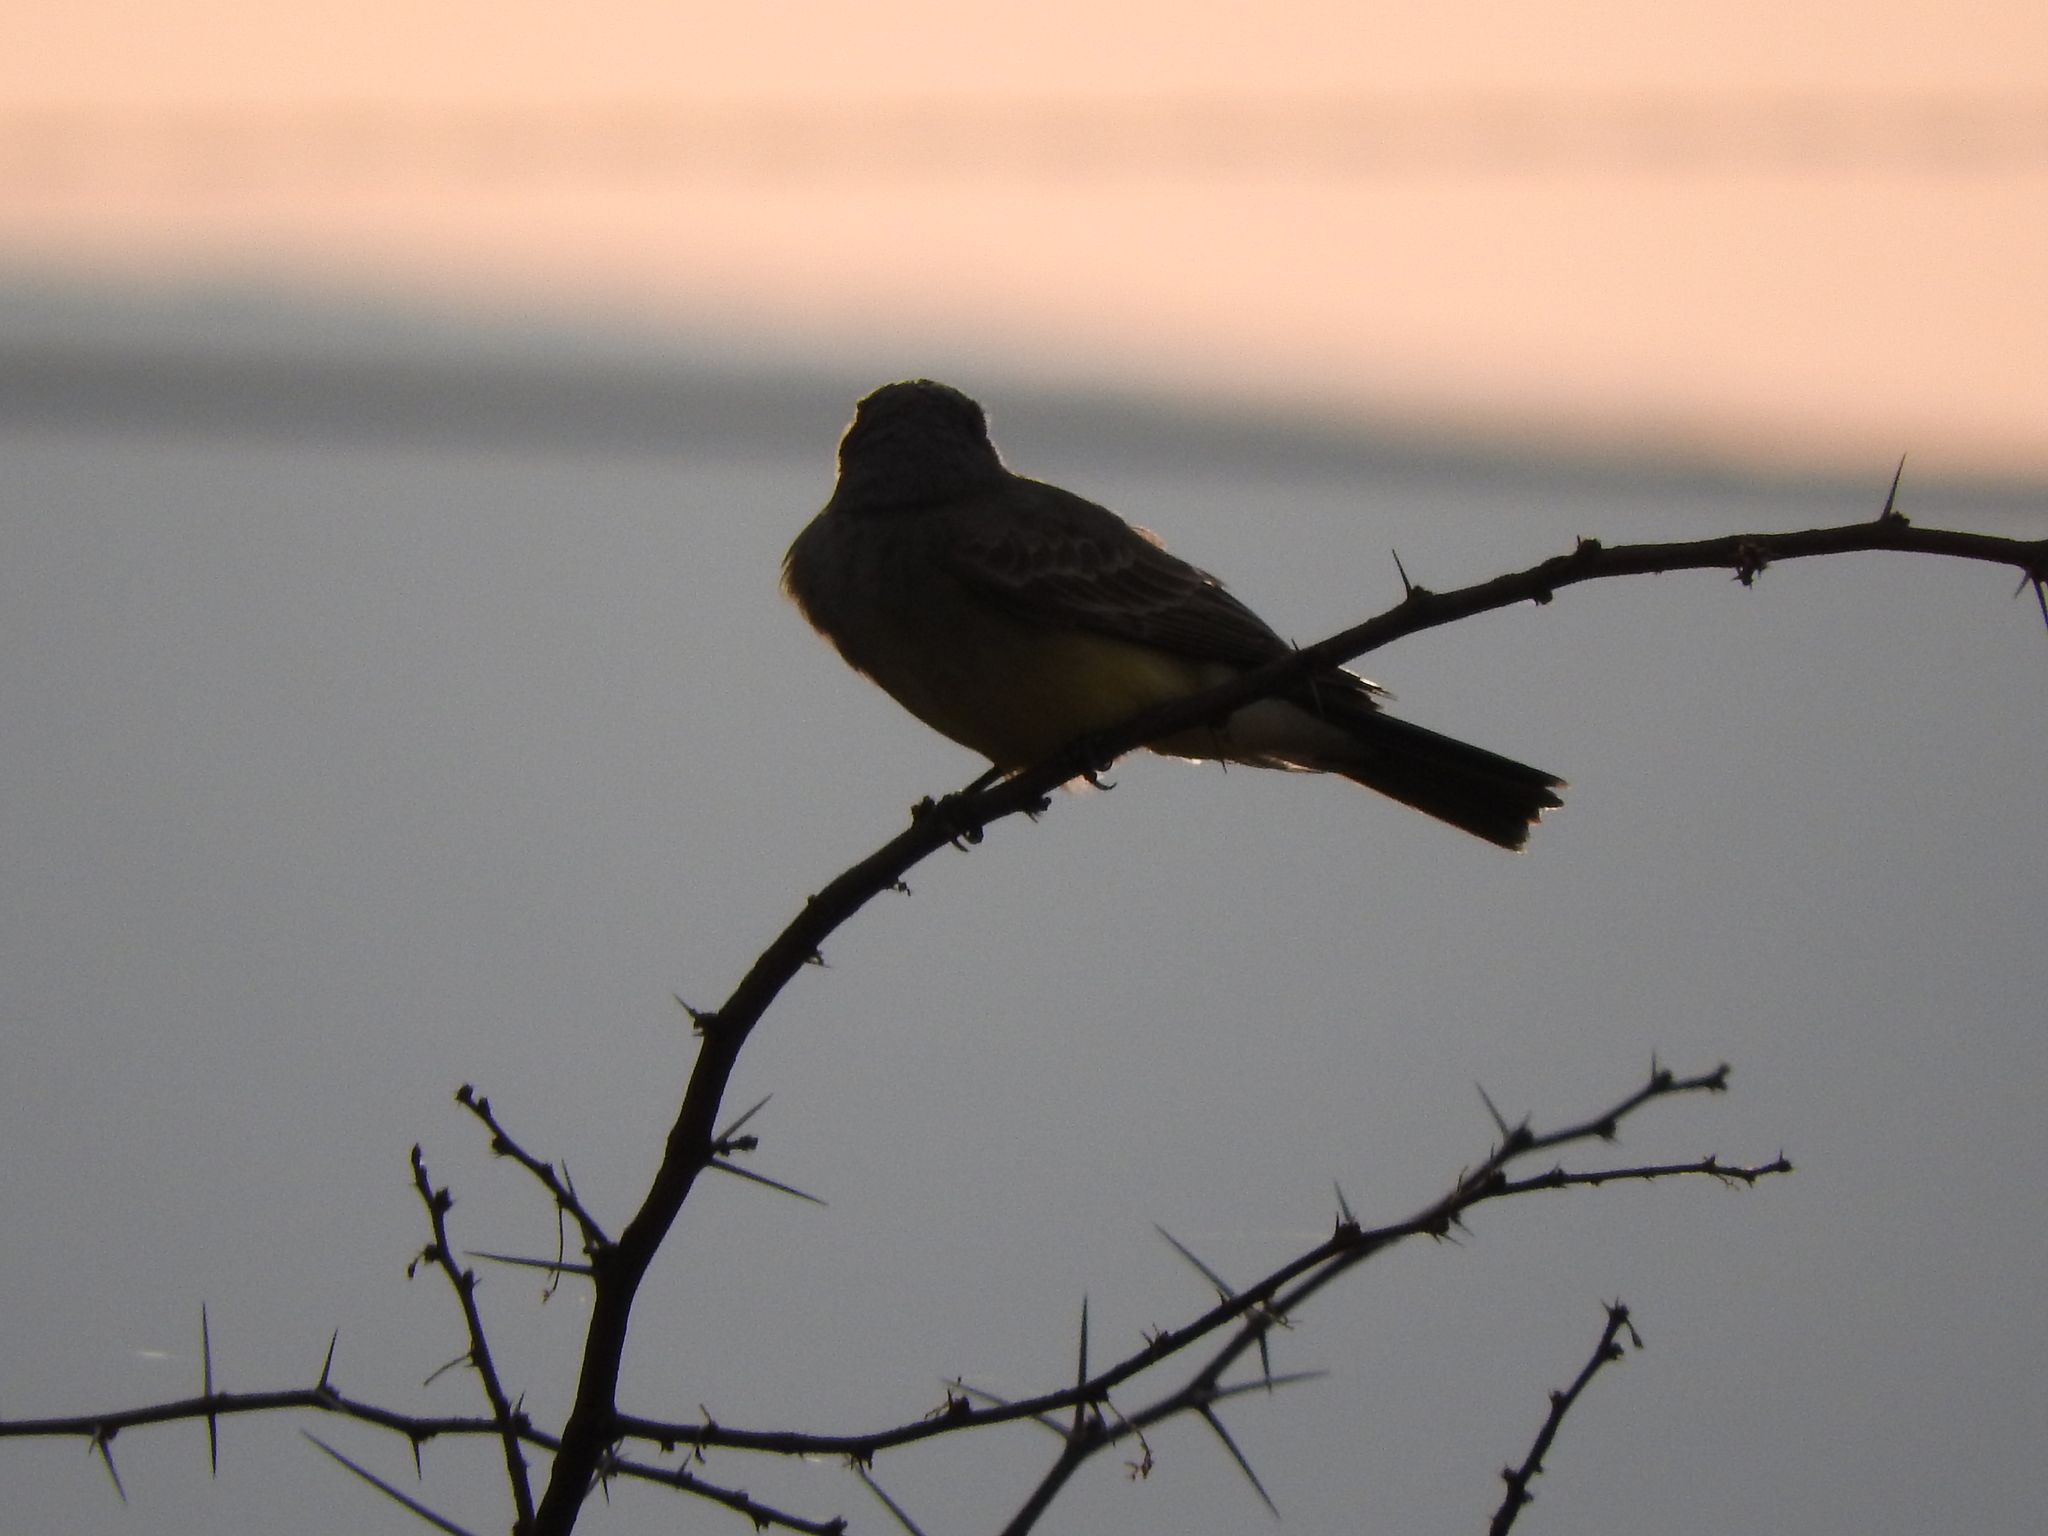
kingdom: Animalia
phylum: Chordata
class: Aves
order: Passeriformes
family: Tyrannidae
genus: Tyrannus
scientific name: Tyrannus vociferans
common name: Cassin's kingbird
